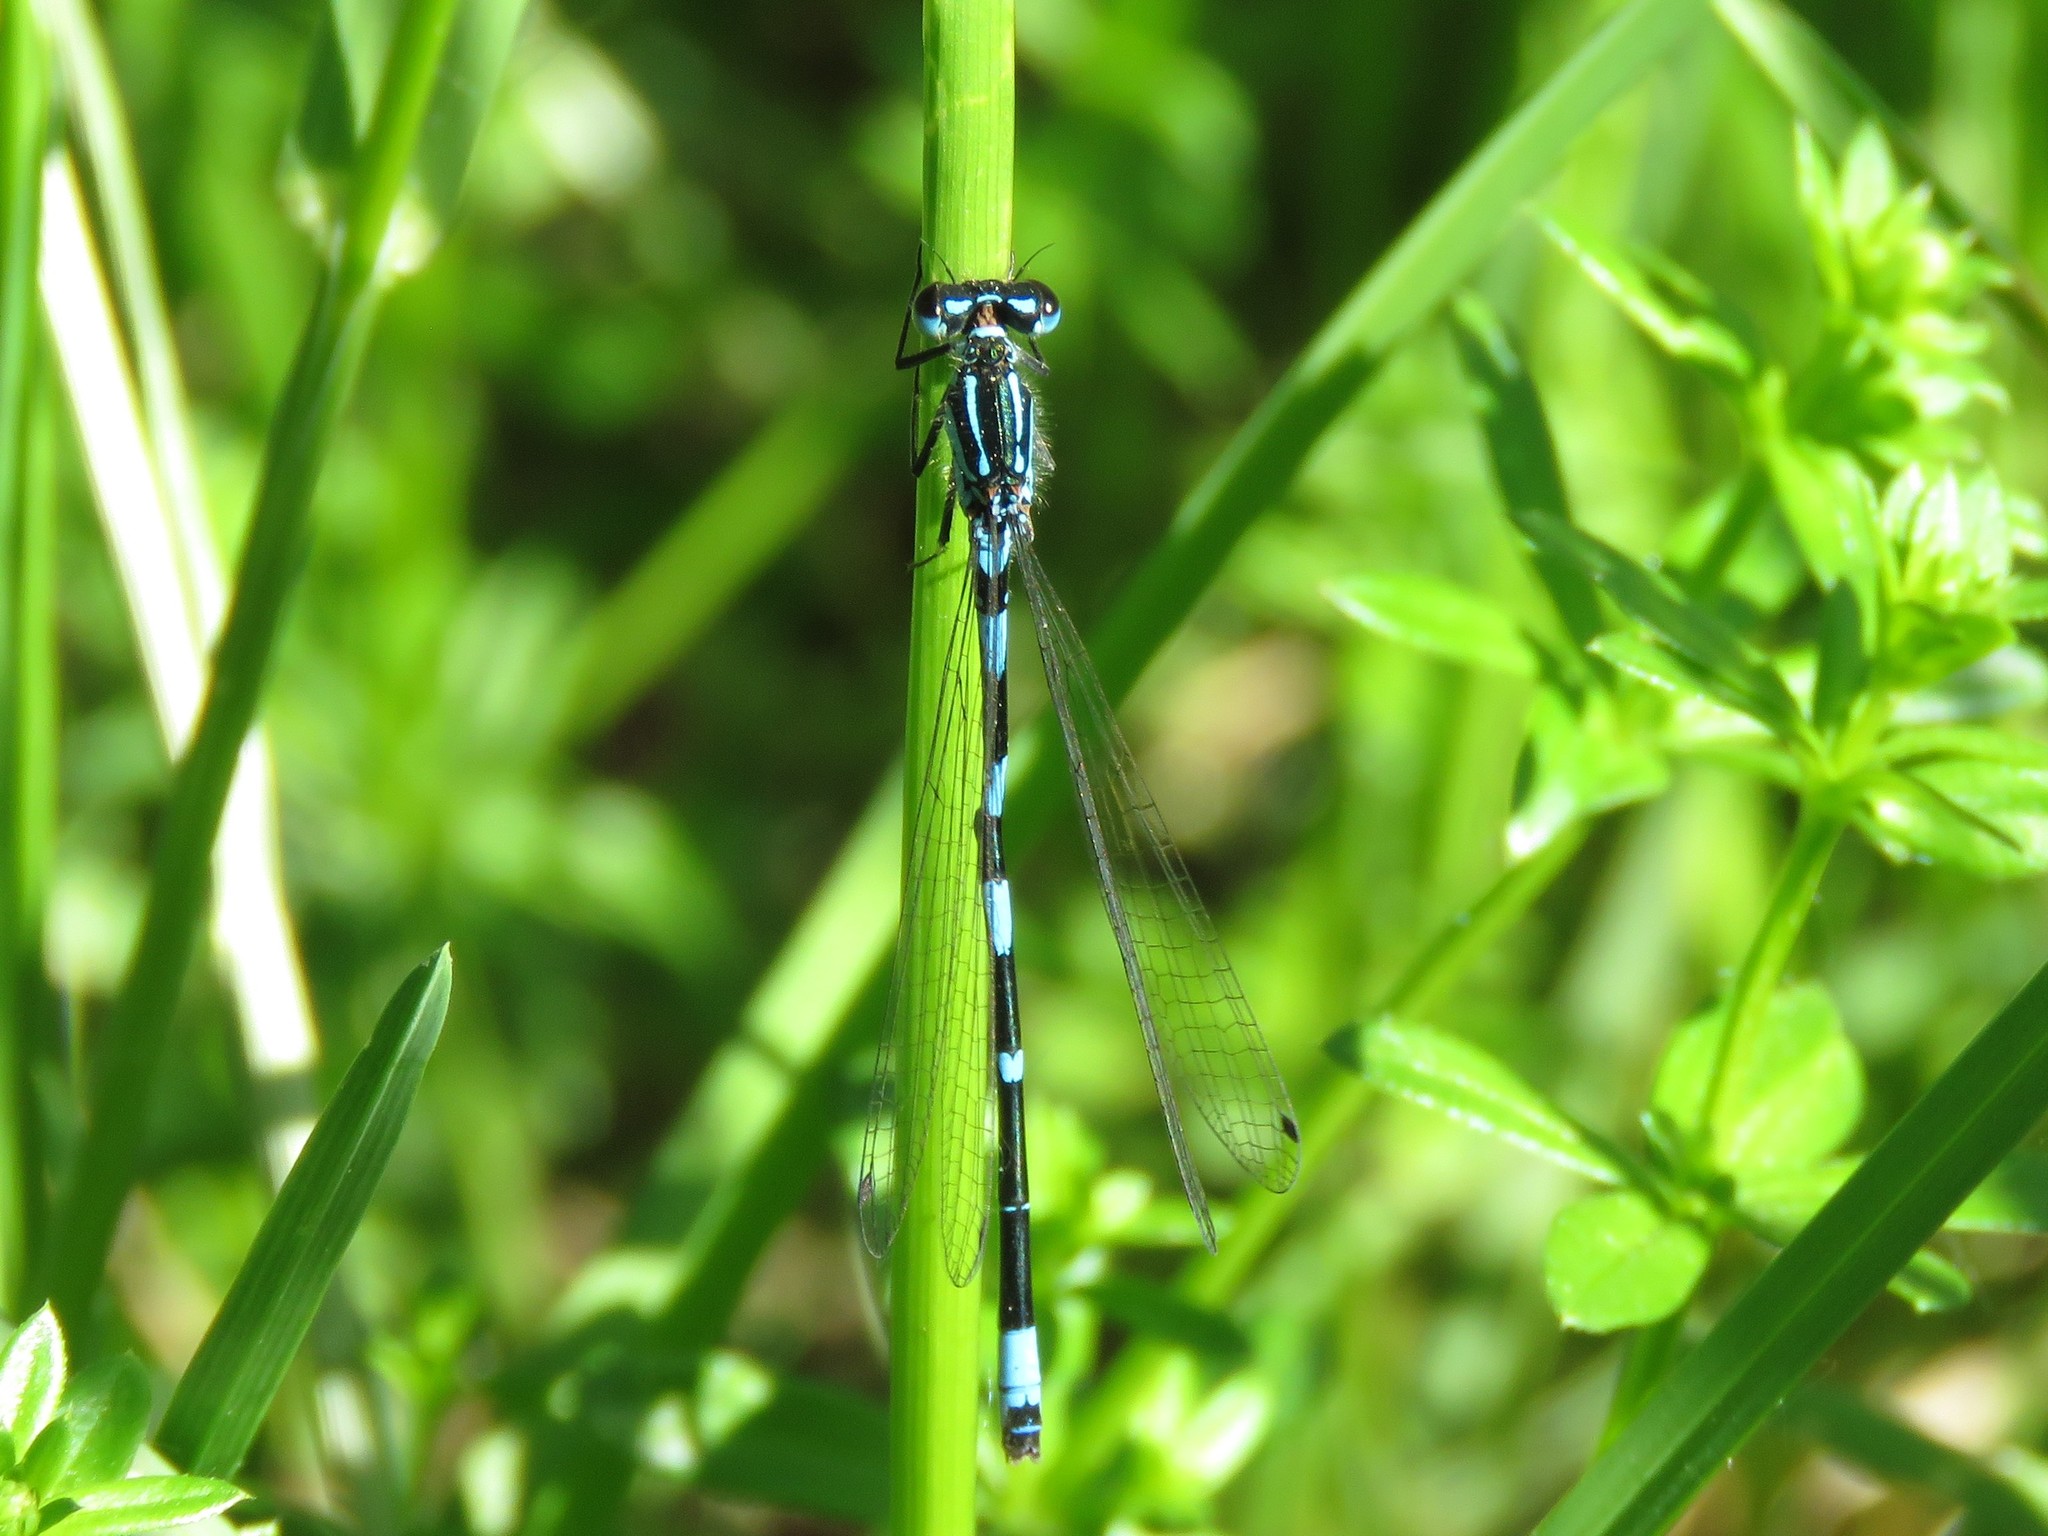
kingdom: Animalia
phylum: Arthropoda
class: Insecta
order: Odonata
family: Coenagrionidae
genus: Coenagrion
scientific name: Coenagrion pulchellum
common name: Variable bluet
